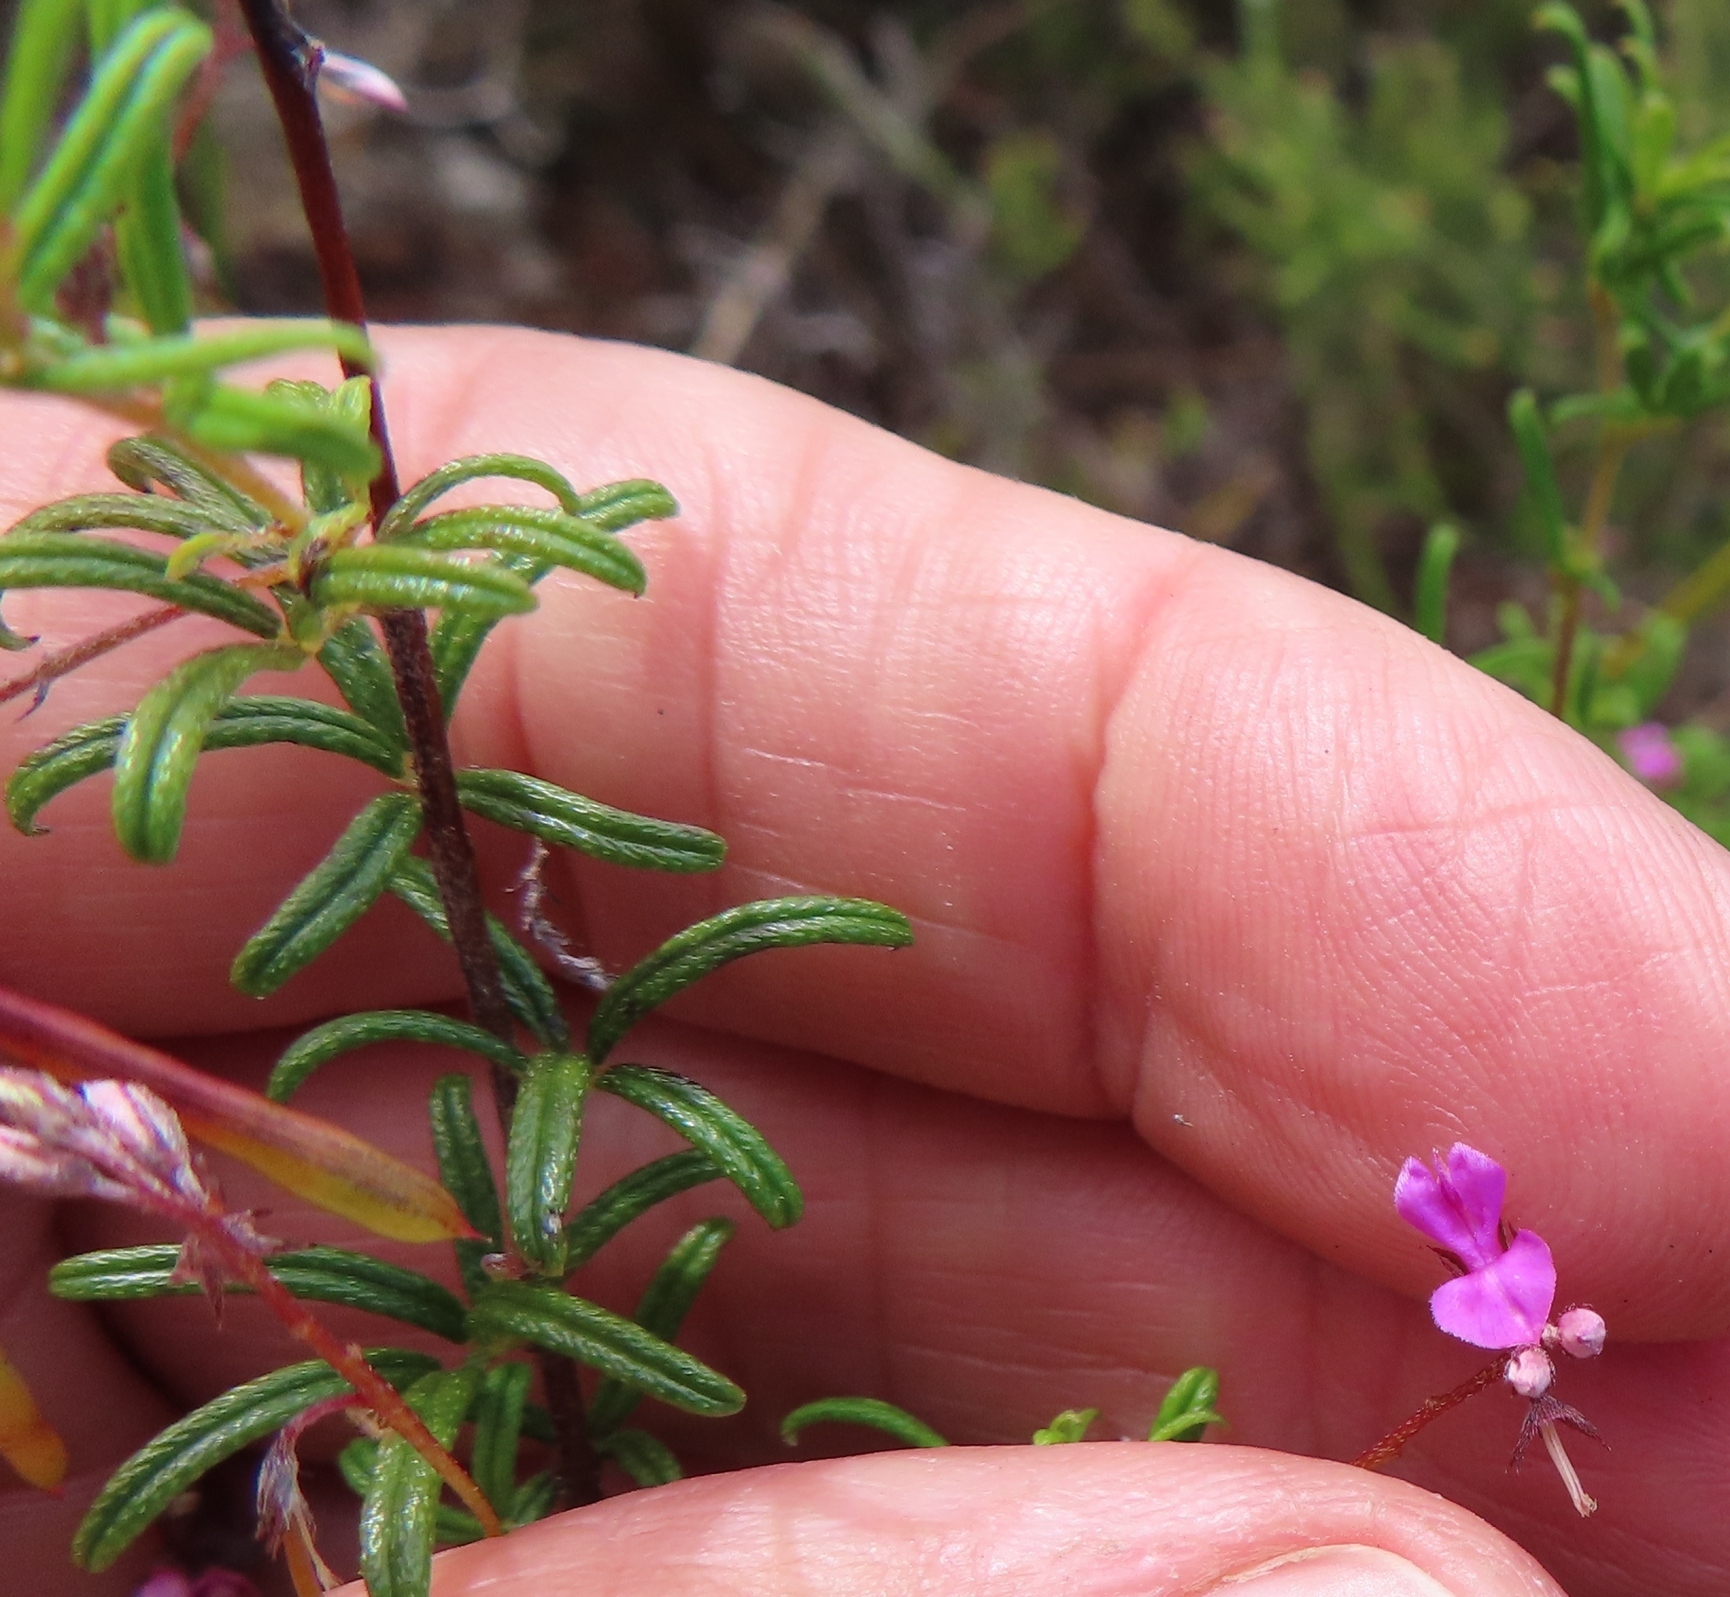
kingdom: Plantae
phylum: Tracheophyta
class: Magnoliopsida
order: Fabales
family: Fabaceae
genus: Indigofera
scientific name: Indigofera angustifolia
